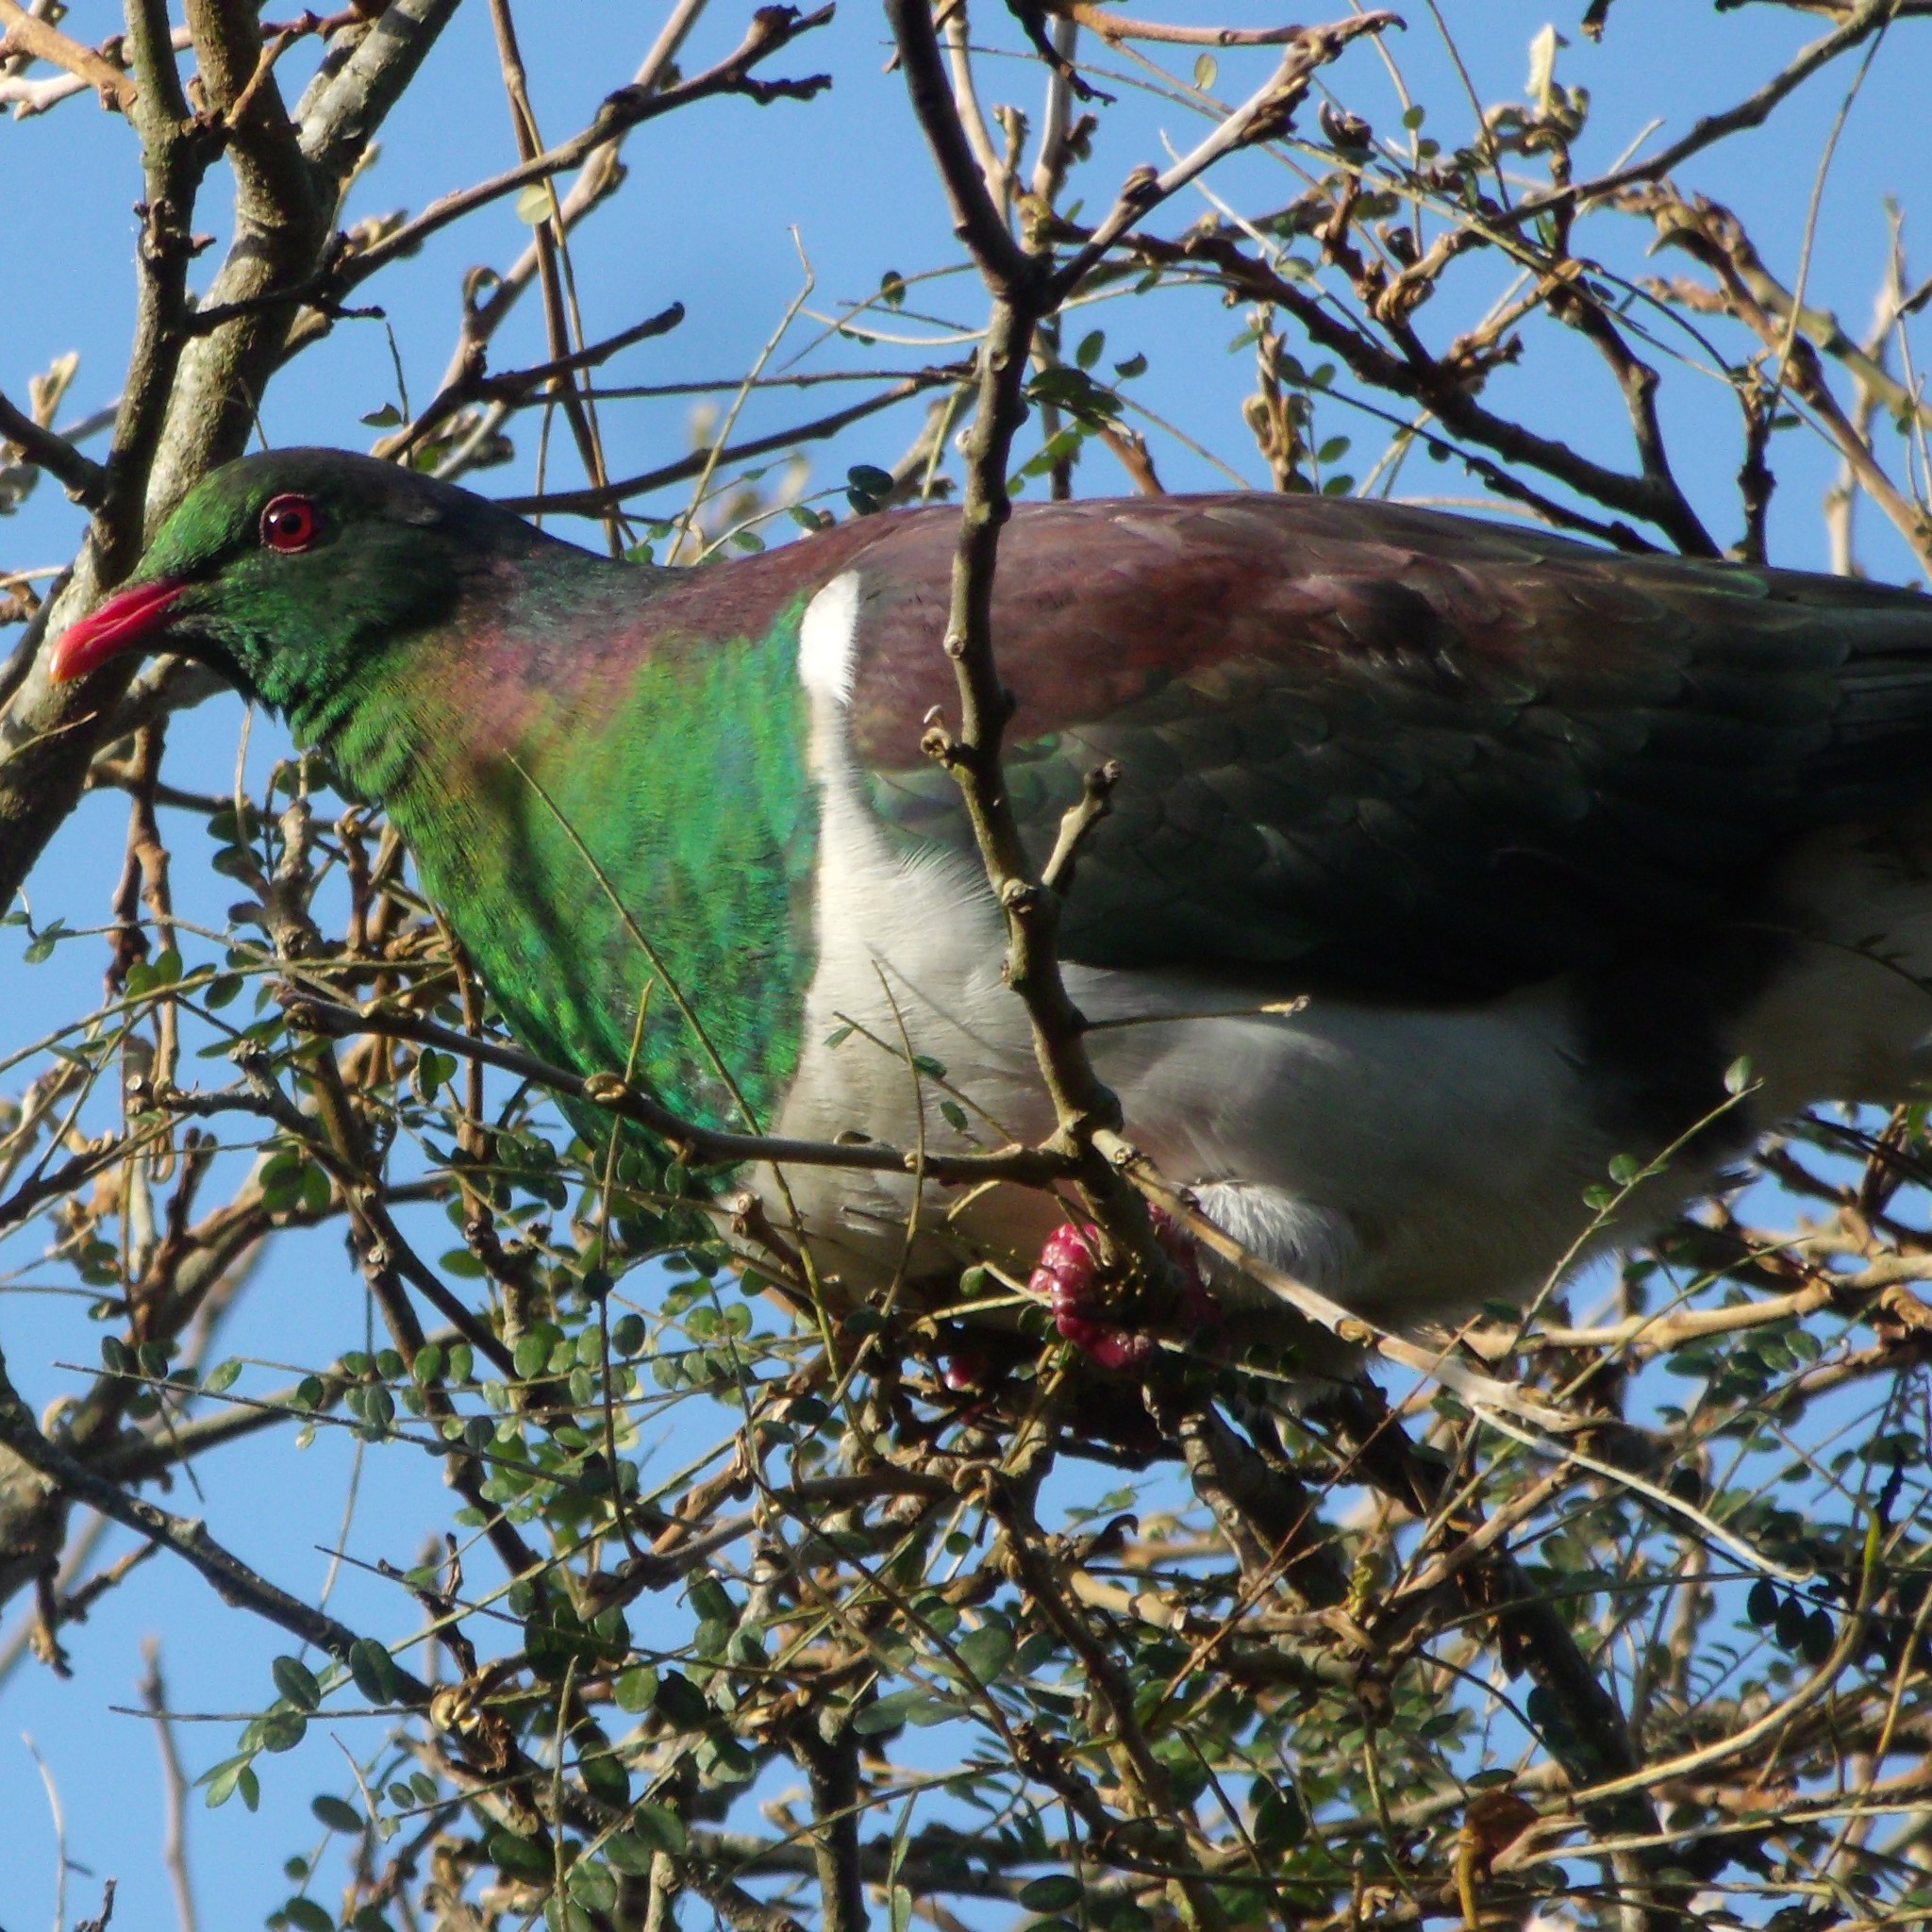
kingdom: Animalia
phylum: Chordata
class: Aves
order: Columbiformes
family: Columbidae
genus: Hemiphaga
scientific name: Hemiphaga novaeseelandiae
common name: New zealand pigeon
